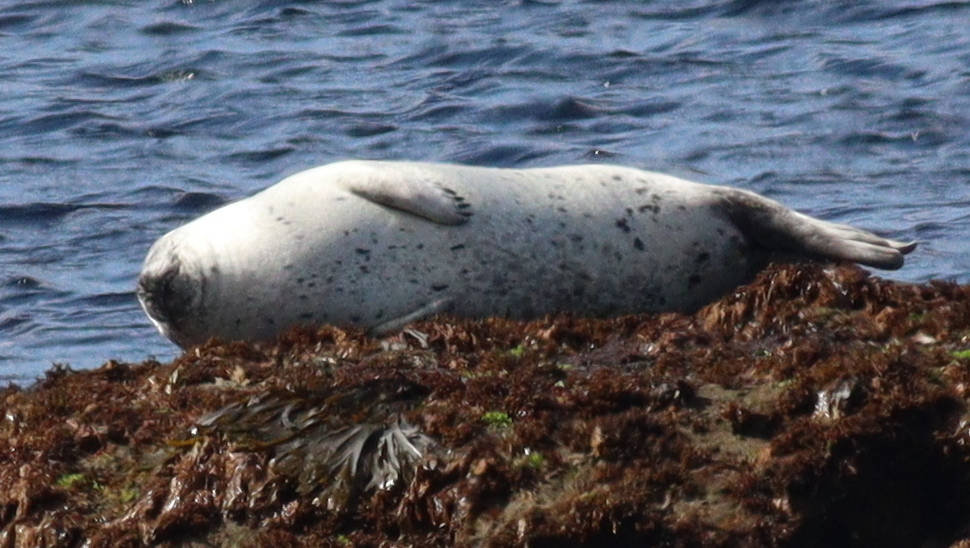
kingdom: Animalia
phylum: Chordata
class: Mammalia
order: Carnivora
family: Phocidae
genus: Phoca
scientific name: Phoca vitulina
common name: Harbor seal
